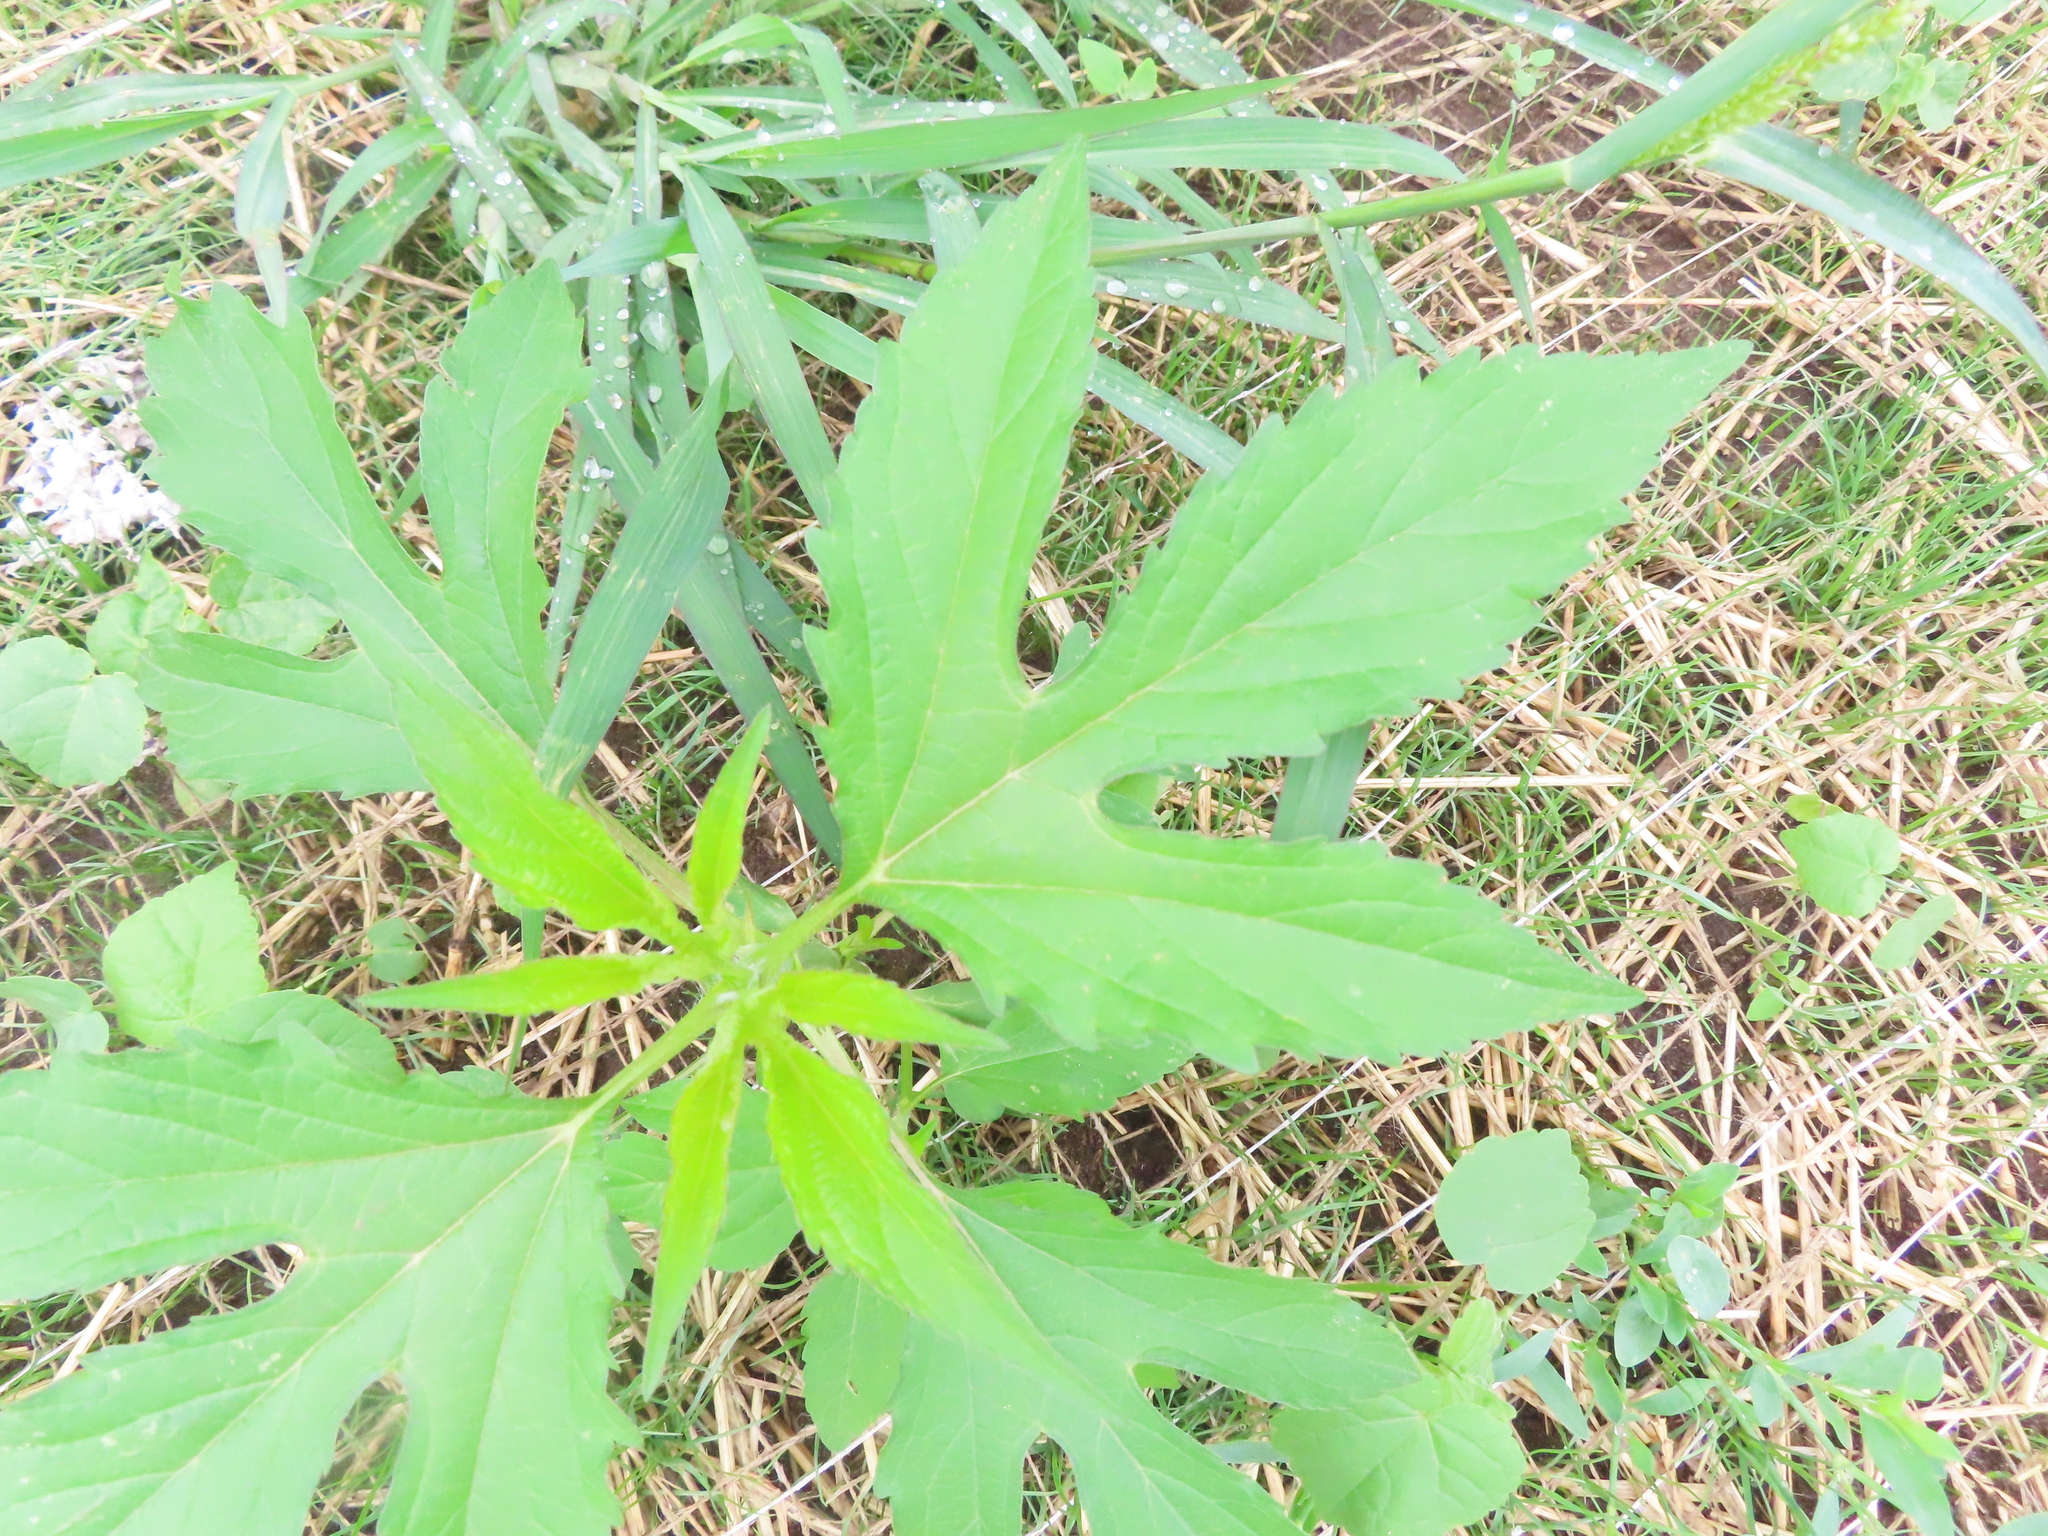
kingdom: Plantae
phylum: Tracheophyta
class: Magnoliopsida
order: Asterales
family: Asteraceae
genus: Ambrosia
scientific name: Ambrosia trifida
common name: Giant ragweed
